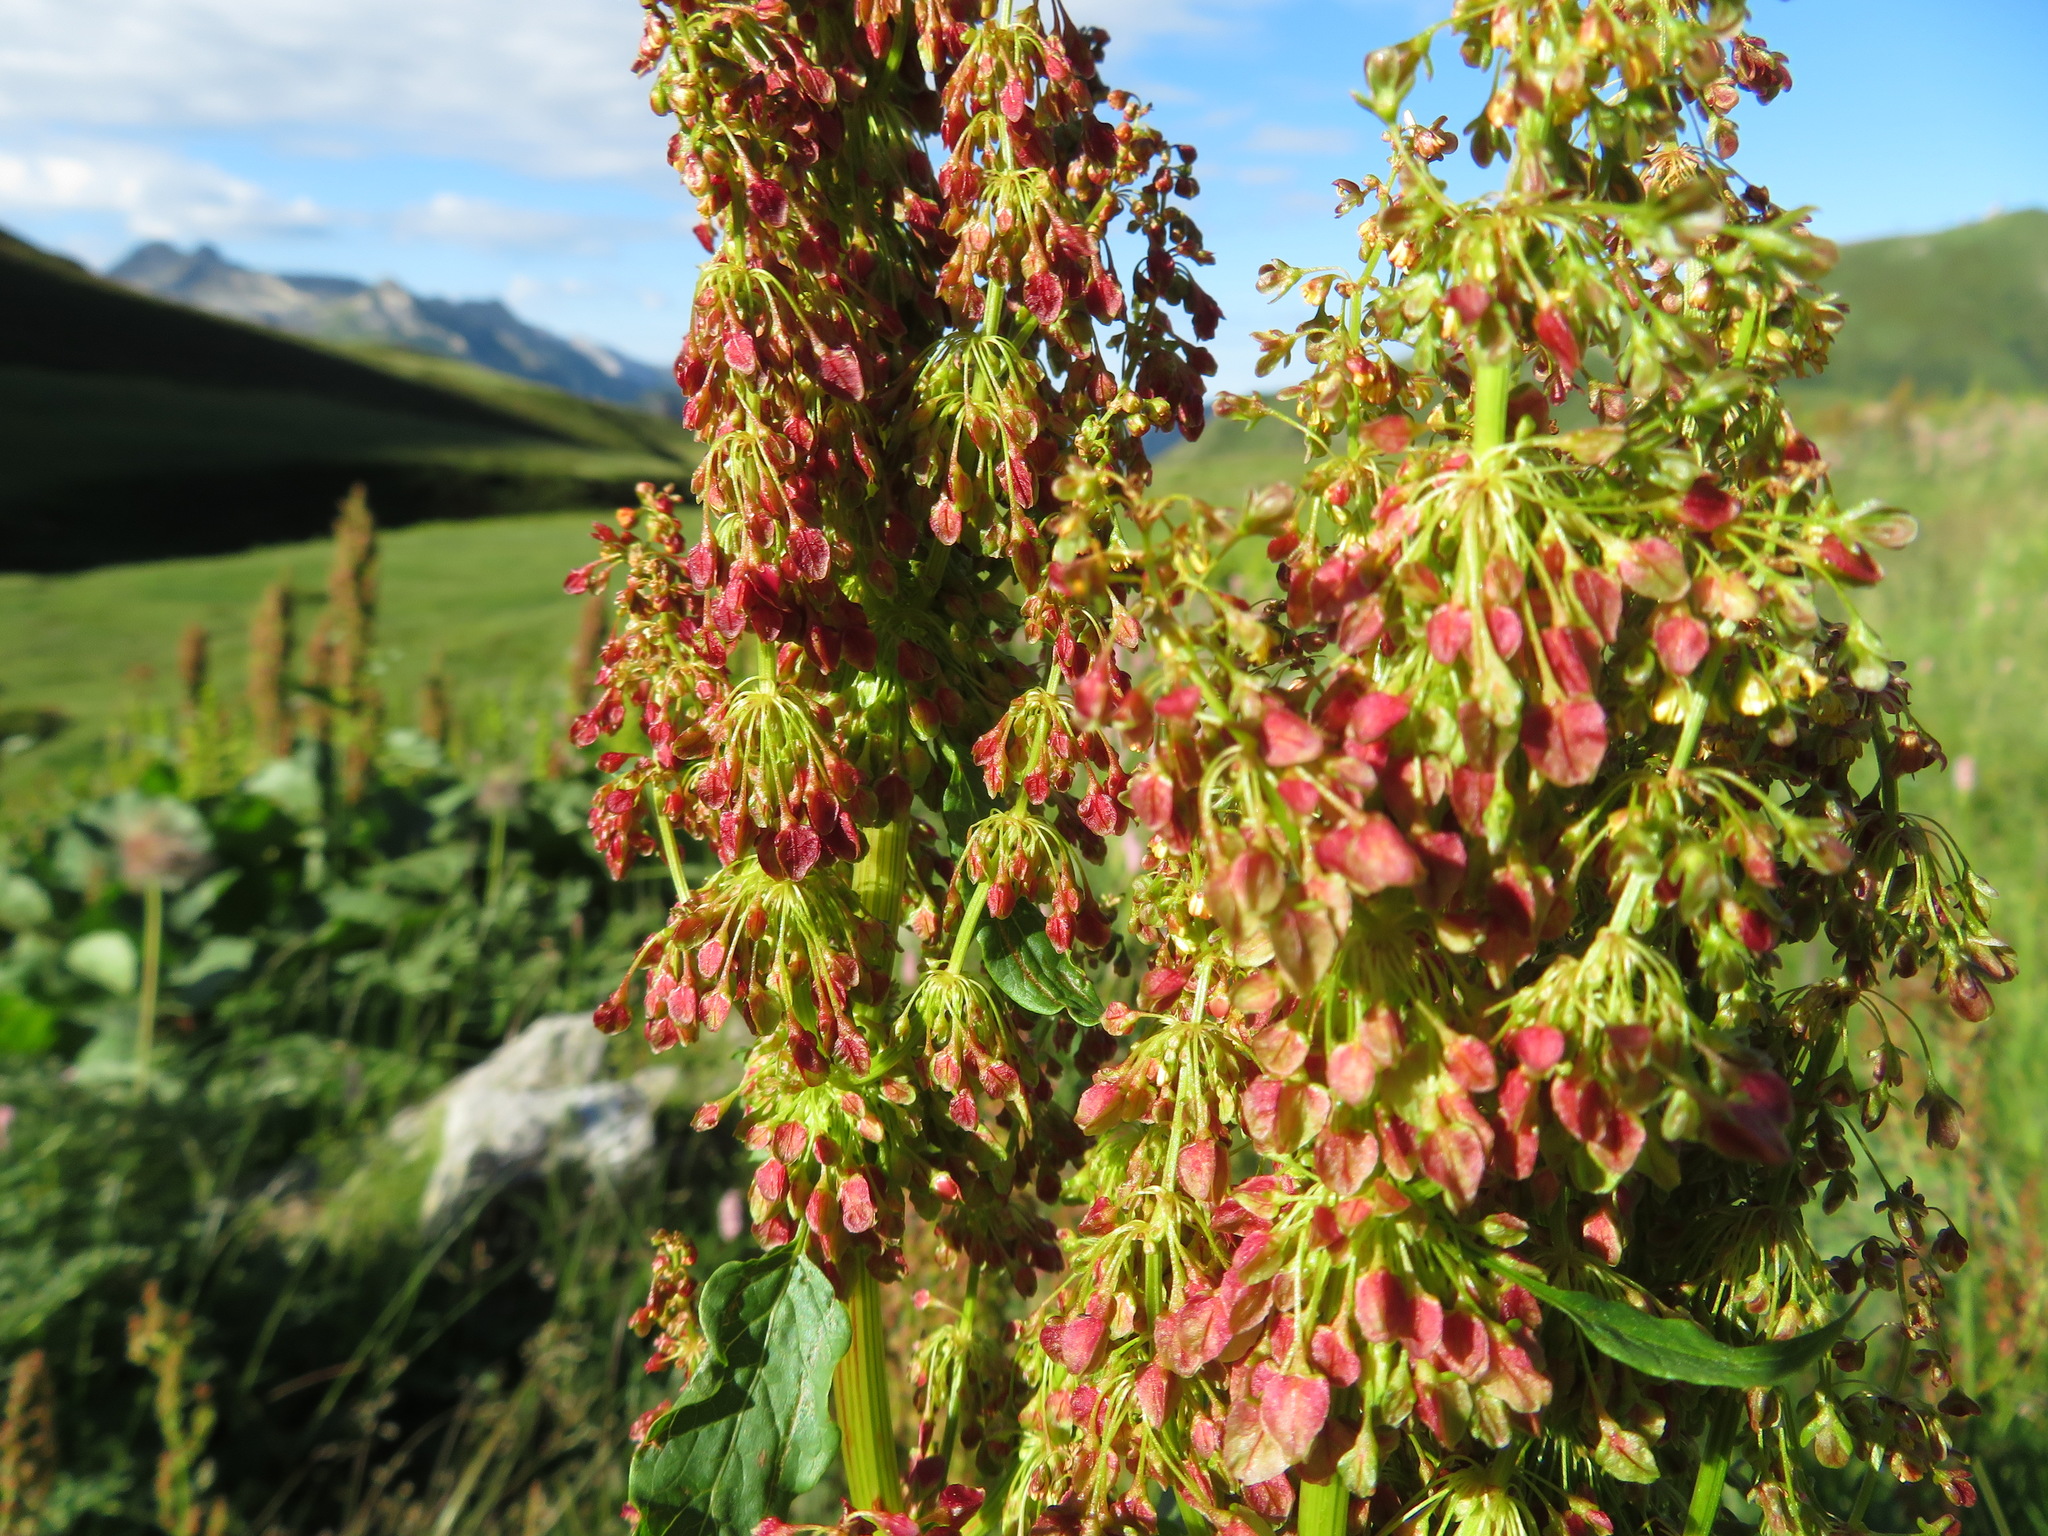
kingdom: Plantae
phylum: Tracheophyta
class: Magnoliopsida
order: Caryophyllales
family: Polygonaceae
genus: Rumex
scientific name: Rumex alpinus
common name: Alpine dock
